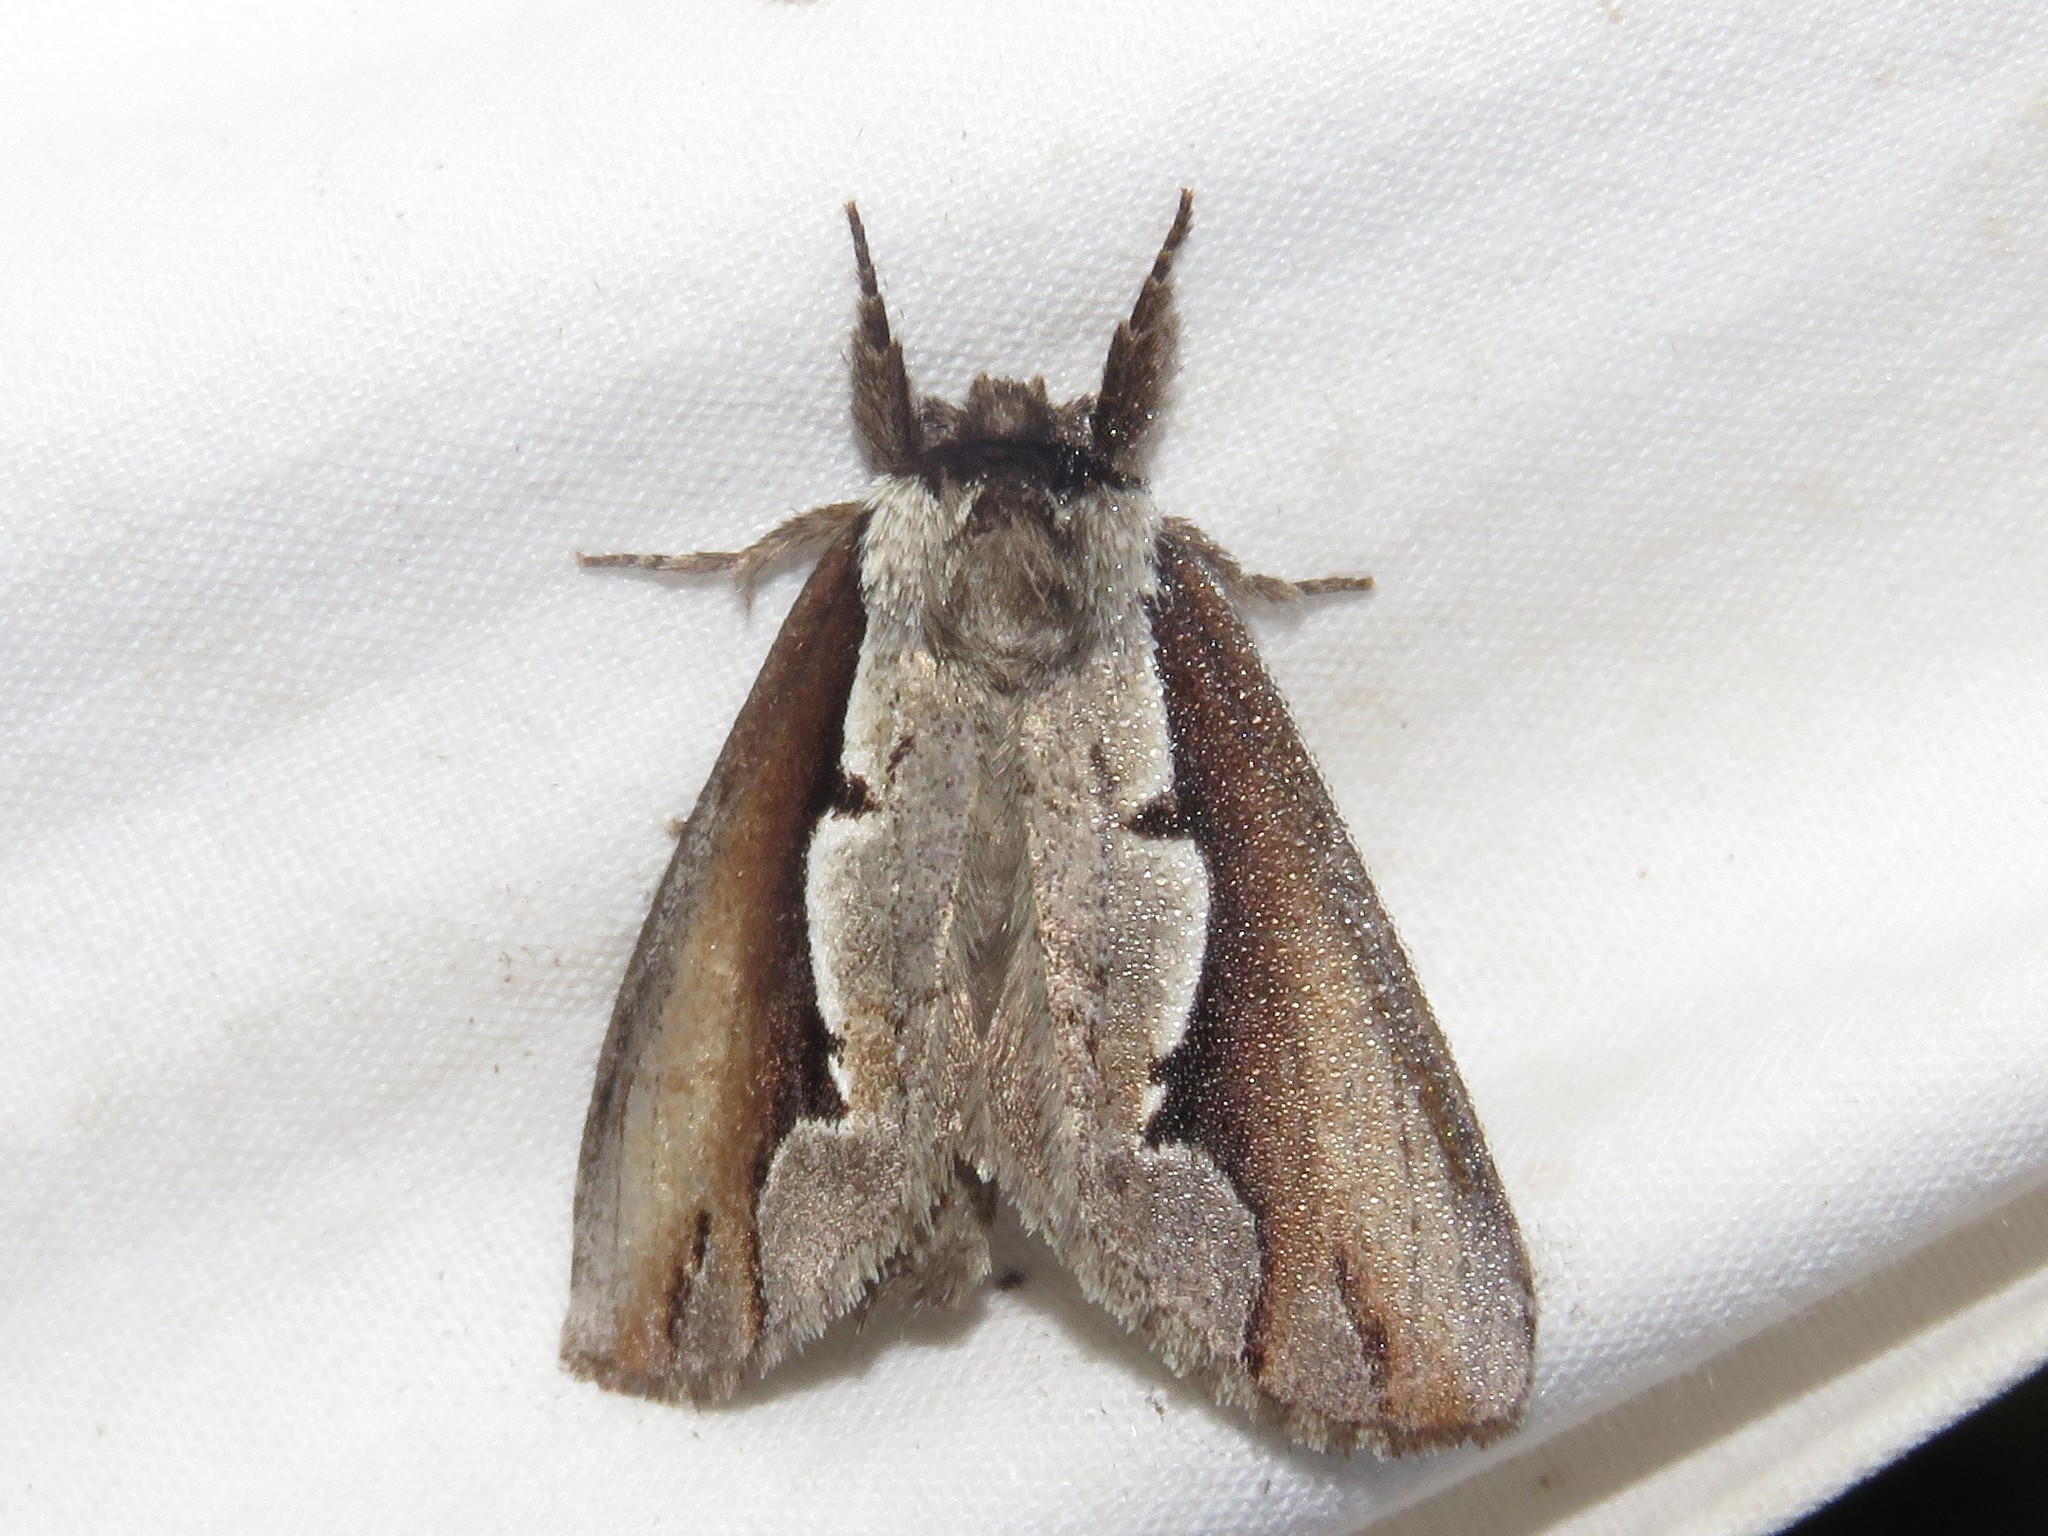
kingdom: Animalia
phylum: Arthropoda
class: Insecta
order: Lepidoptera
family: Notodontidae
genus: Nerice
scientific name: Nerice bidentata
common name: Double-toothed prominent
